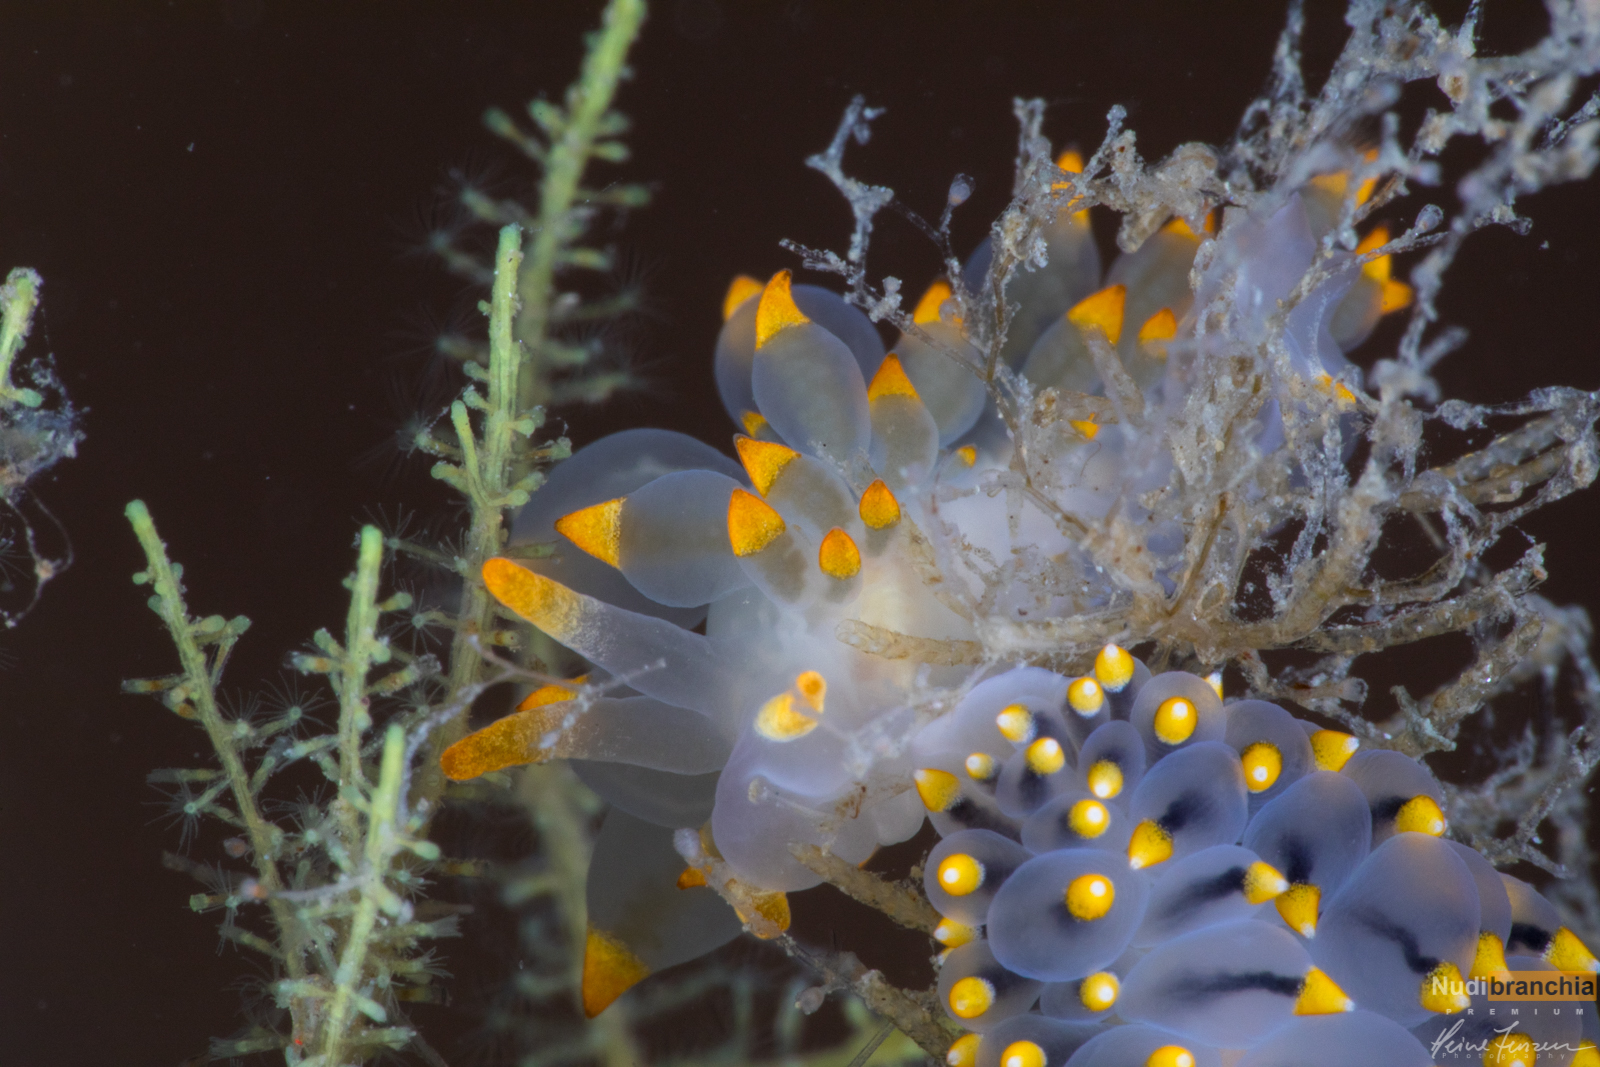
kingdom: Animalia
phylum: Mollusca
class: Gastropoda
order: Nudibranchia
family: Eubranchidae
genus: Amphorina
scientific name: Amphorina farrani
